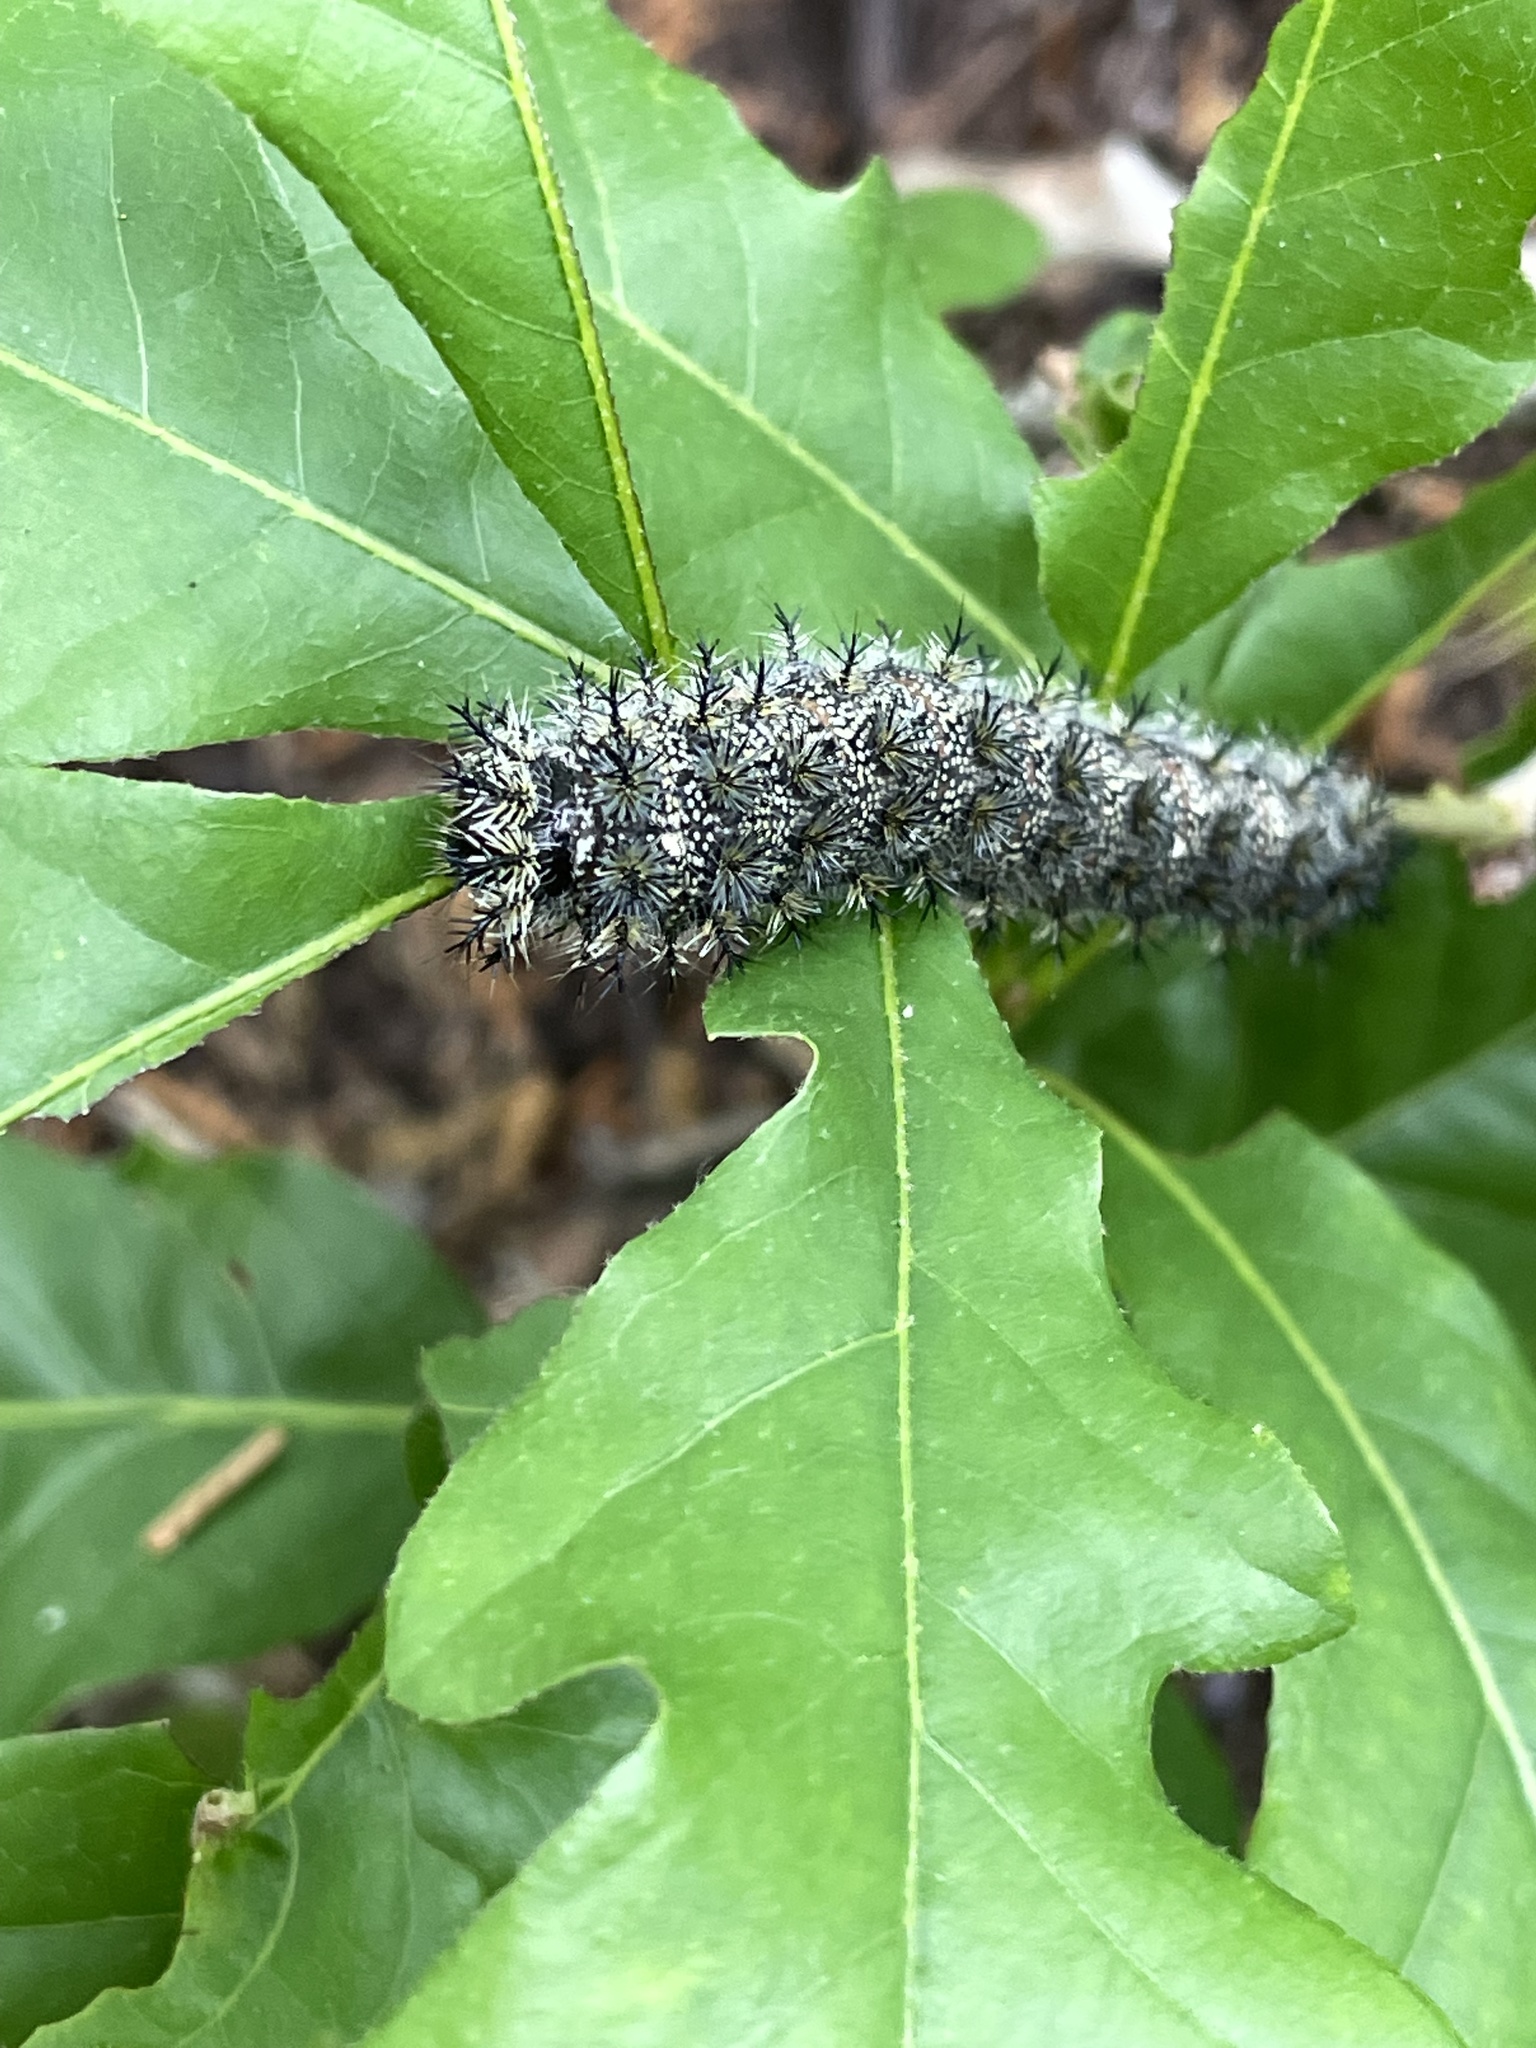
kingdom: Animalia
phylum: Arthropoda
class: Insecta
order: Lepidoptera
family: Saturniidae
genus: Hemileuca
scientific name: Hemileuca grotei
